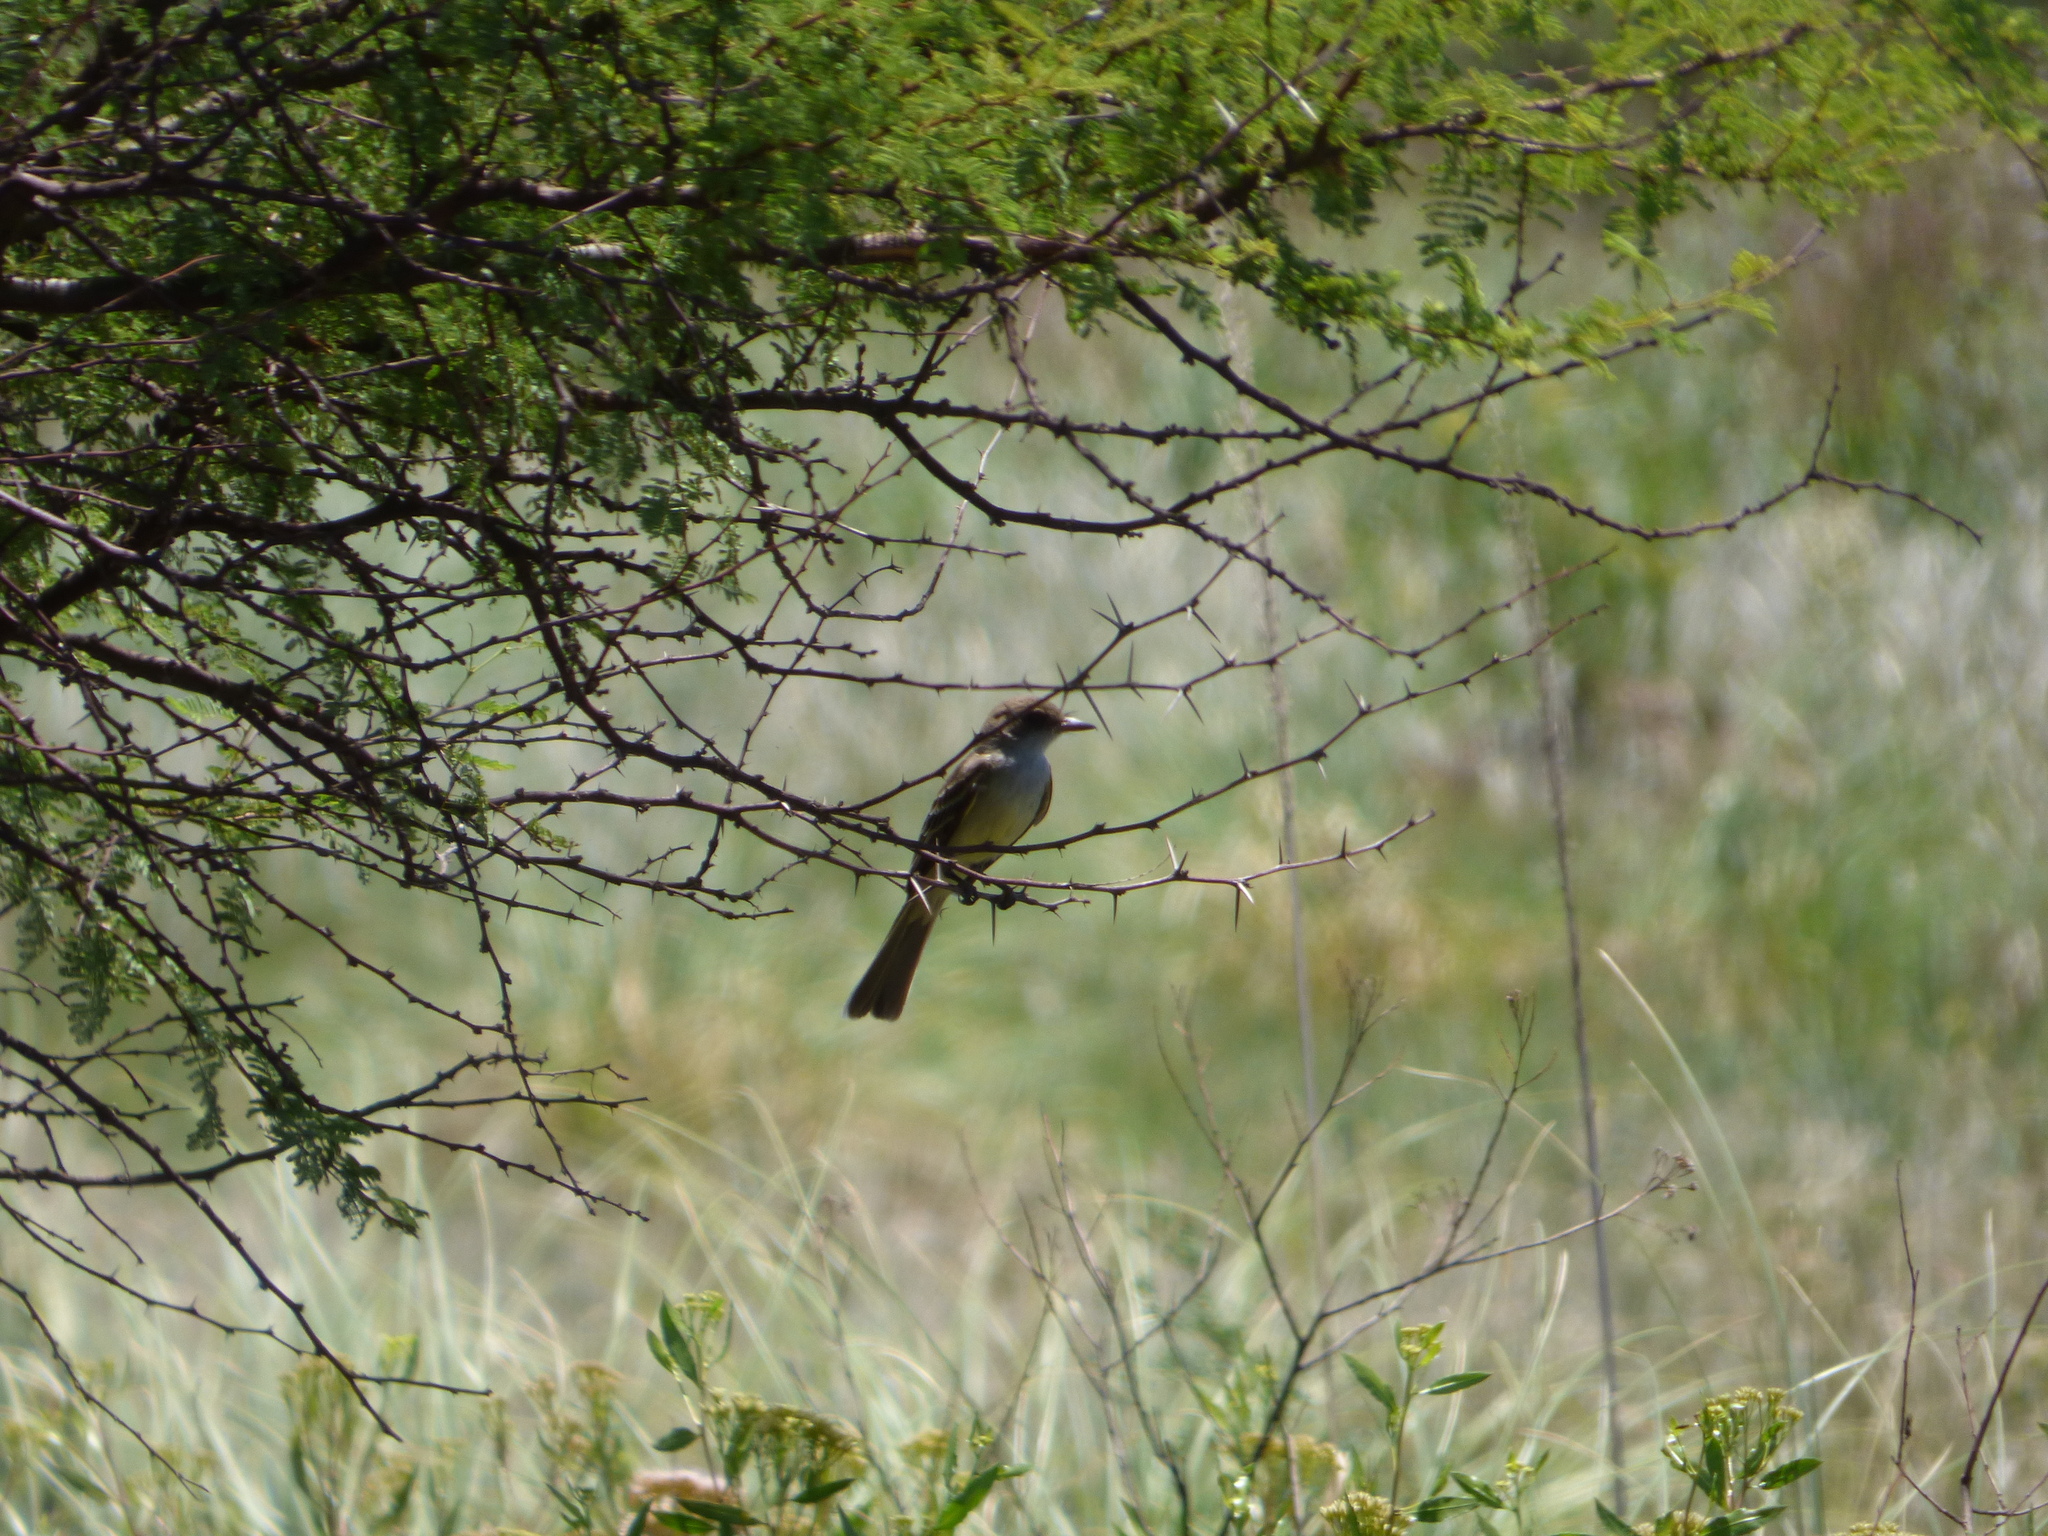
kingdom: Animalia
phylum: Chordata
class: Aves
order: Passeriformes
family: Tyrannidae
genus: Myiarchus
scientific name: Myiarchus swainsoni
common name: Swainson's flycatcher
